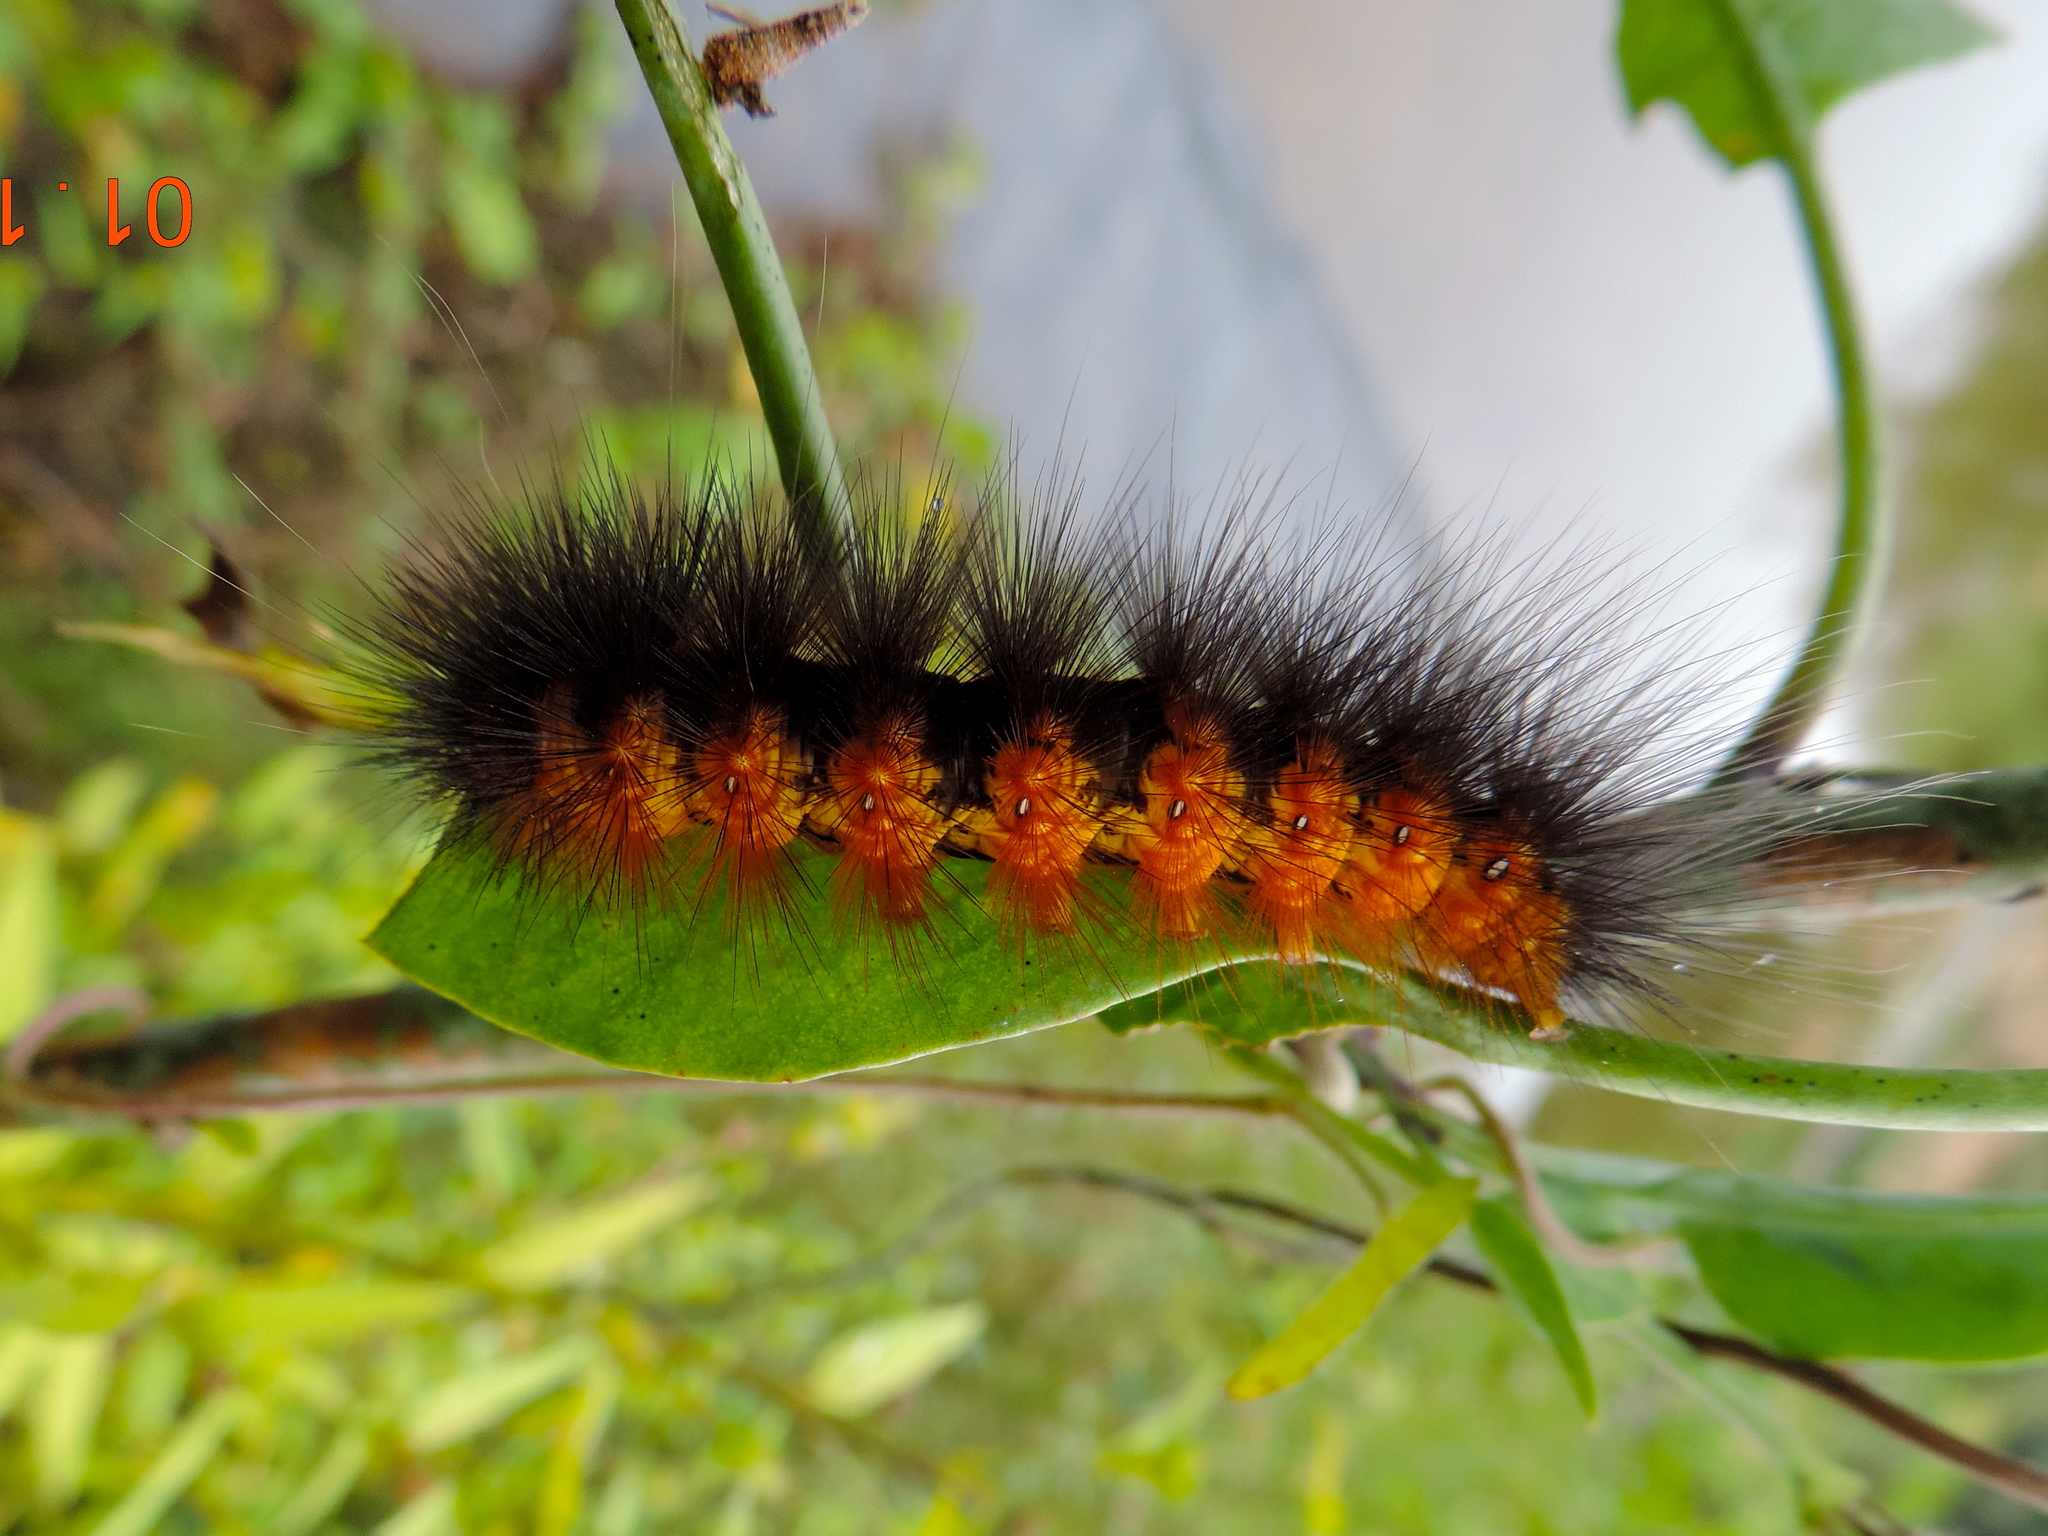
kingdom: Animalia
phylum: Arthropoda
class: Insecta
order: Lepidoptera
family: Erebidae
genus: Estigmene
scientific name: Estigmene acrea
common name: Salt marsh moth
